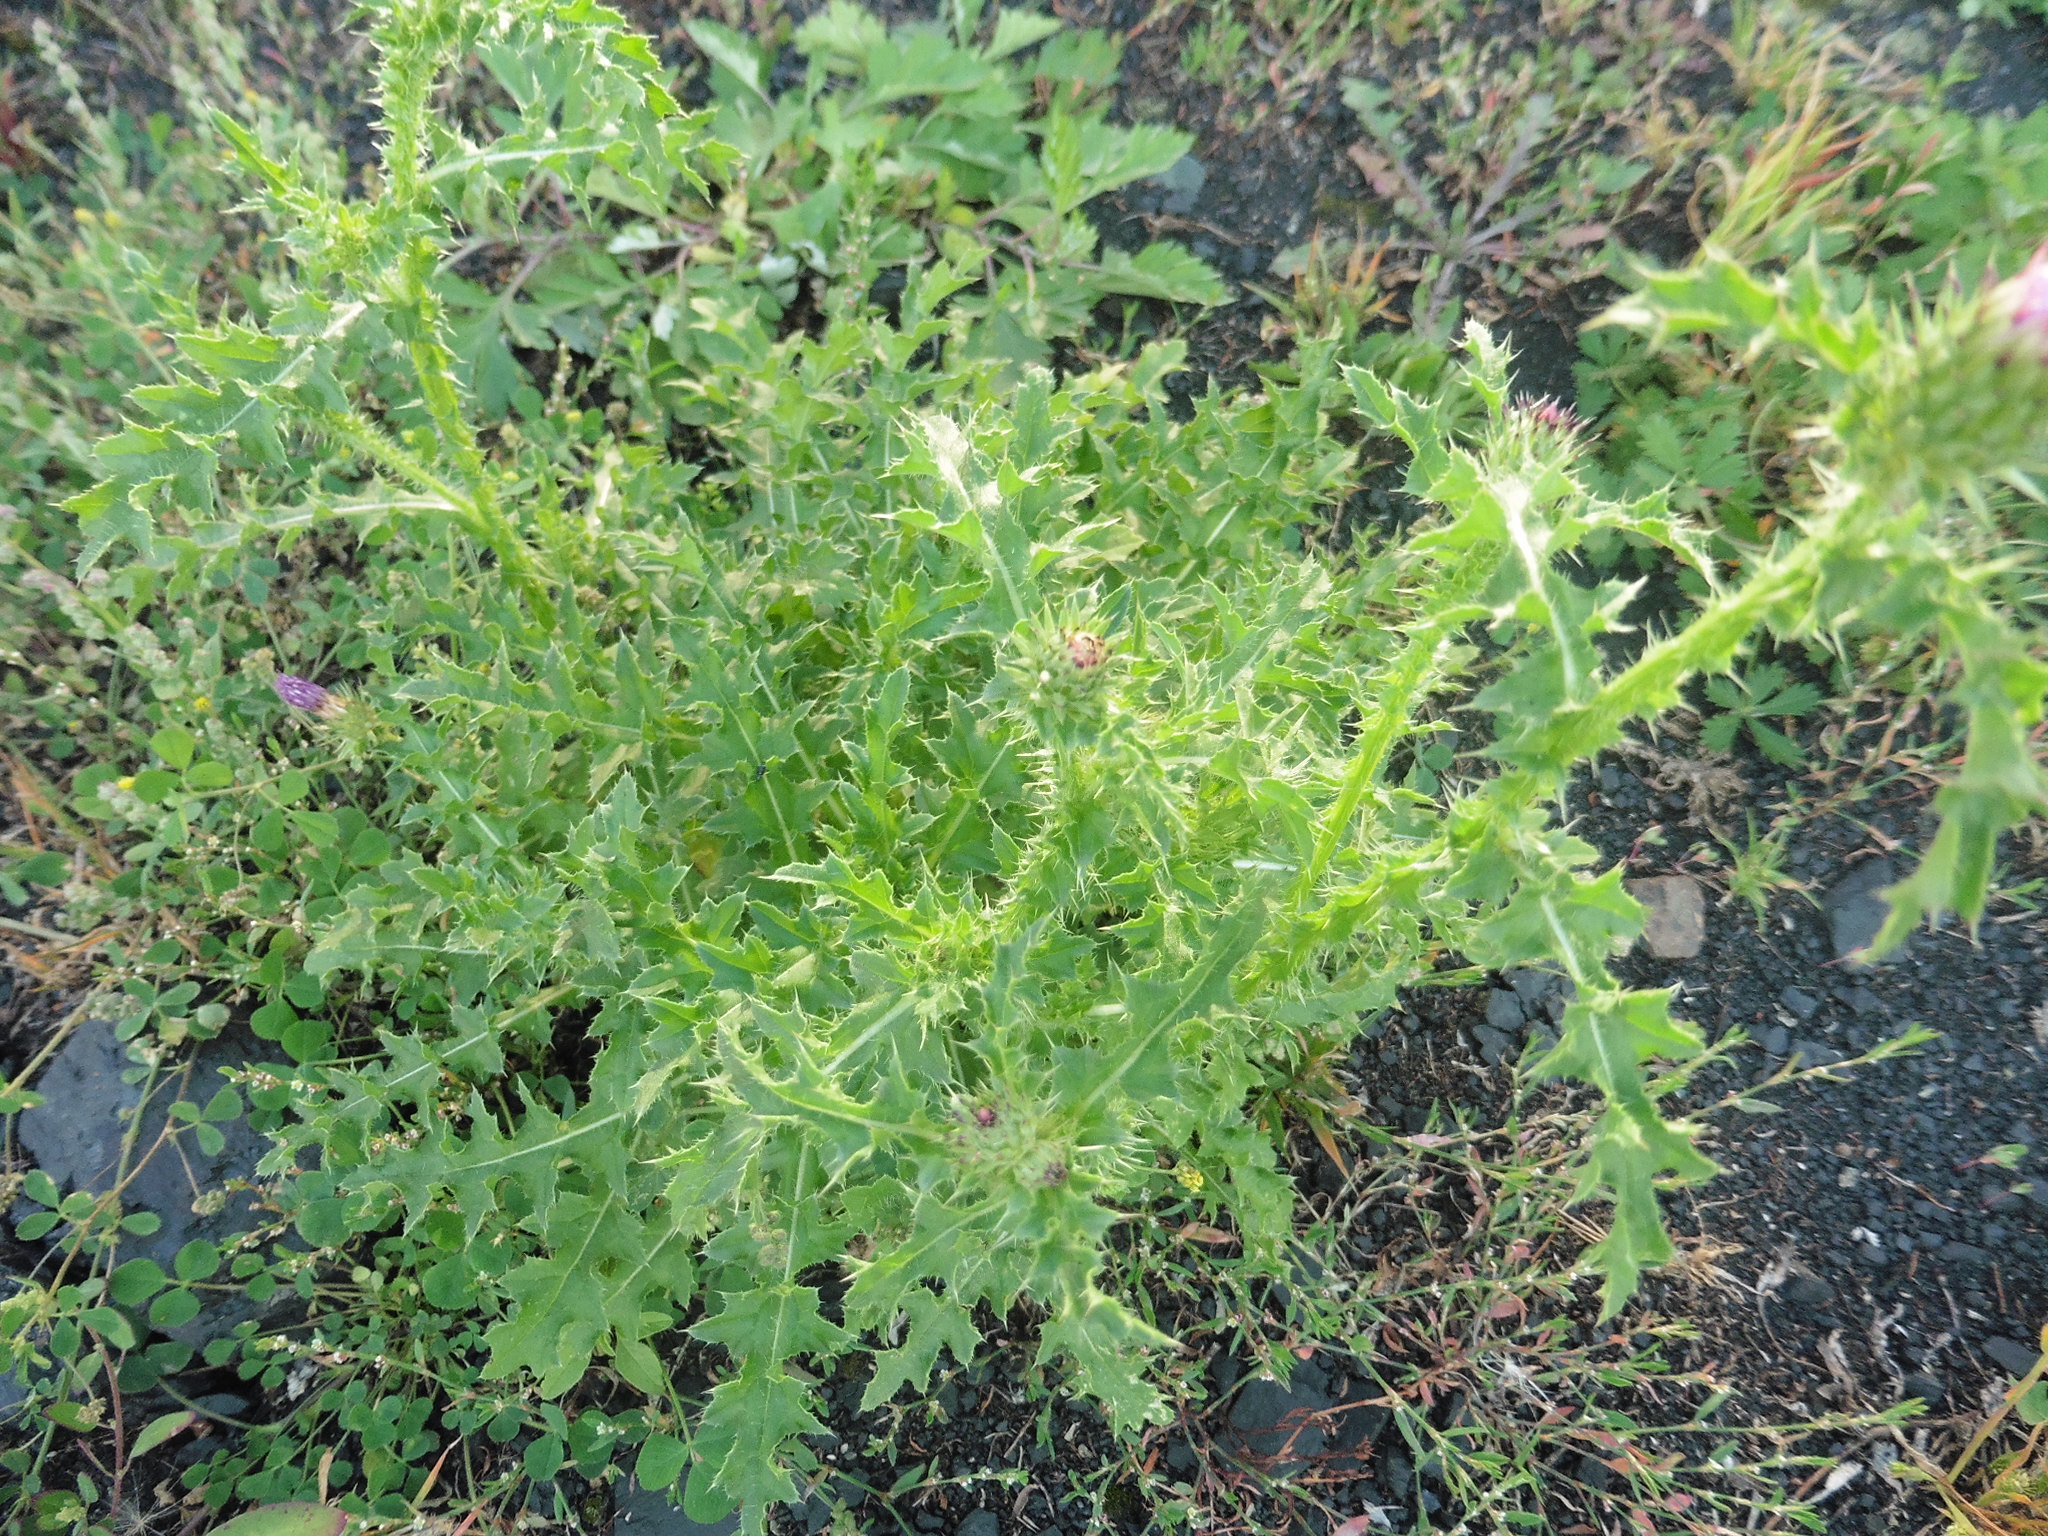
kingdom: Plantae
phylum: Tracheophyta
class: Magnoliopsida
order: Asterales
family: Asteraceae
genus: Carduus
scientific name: Carduus acanthoides
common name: Plumeless thistle
